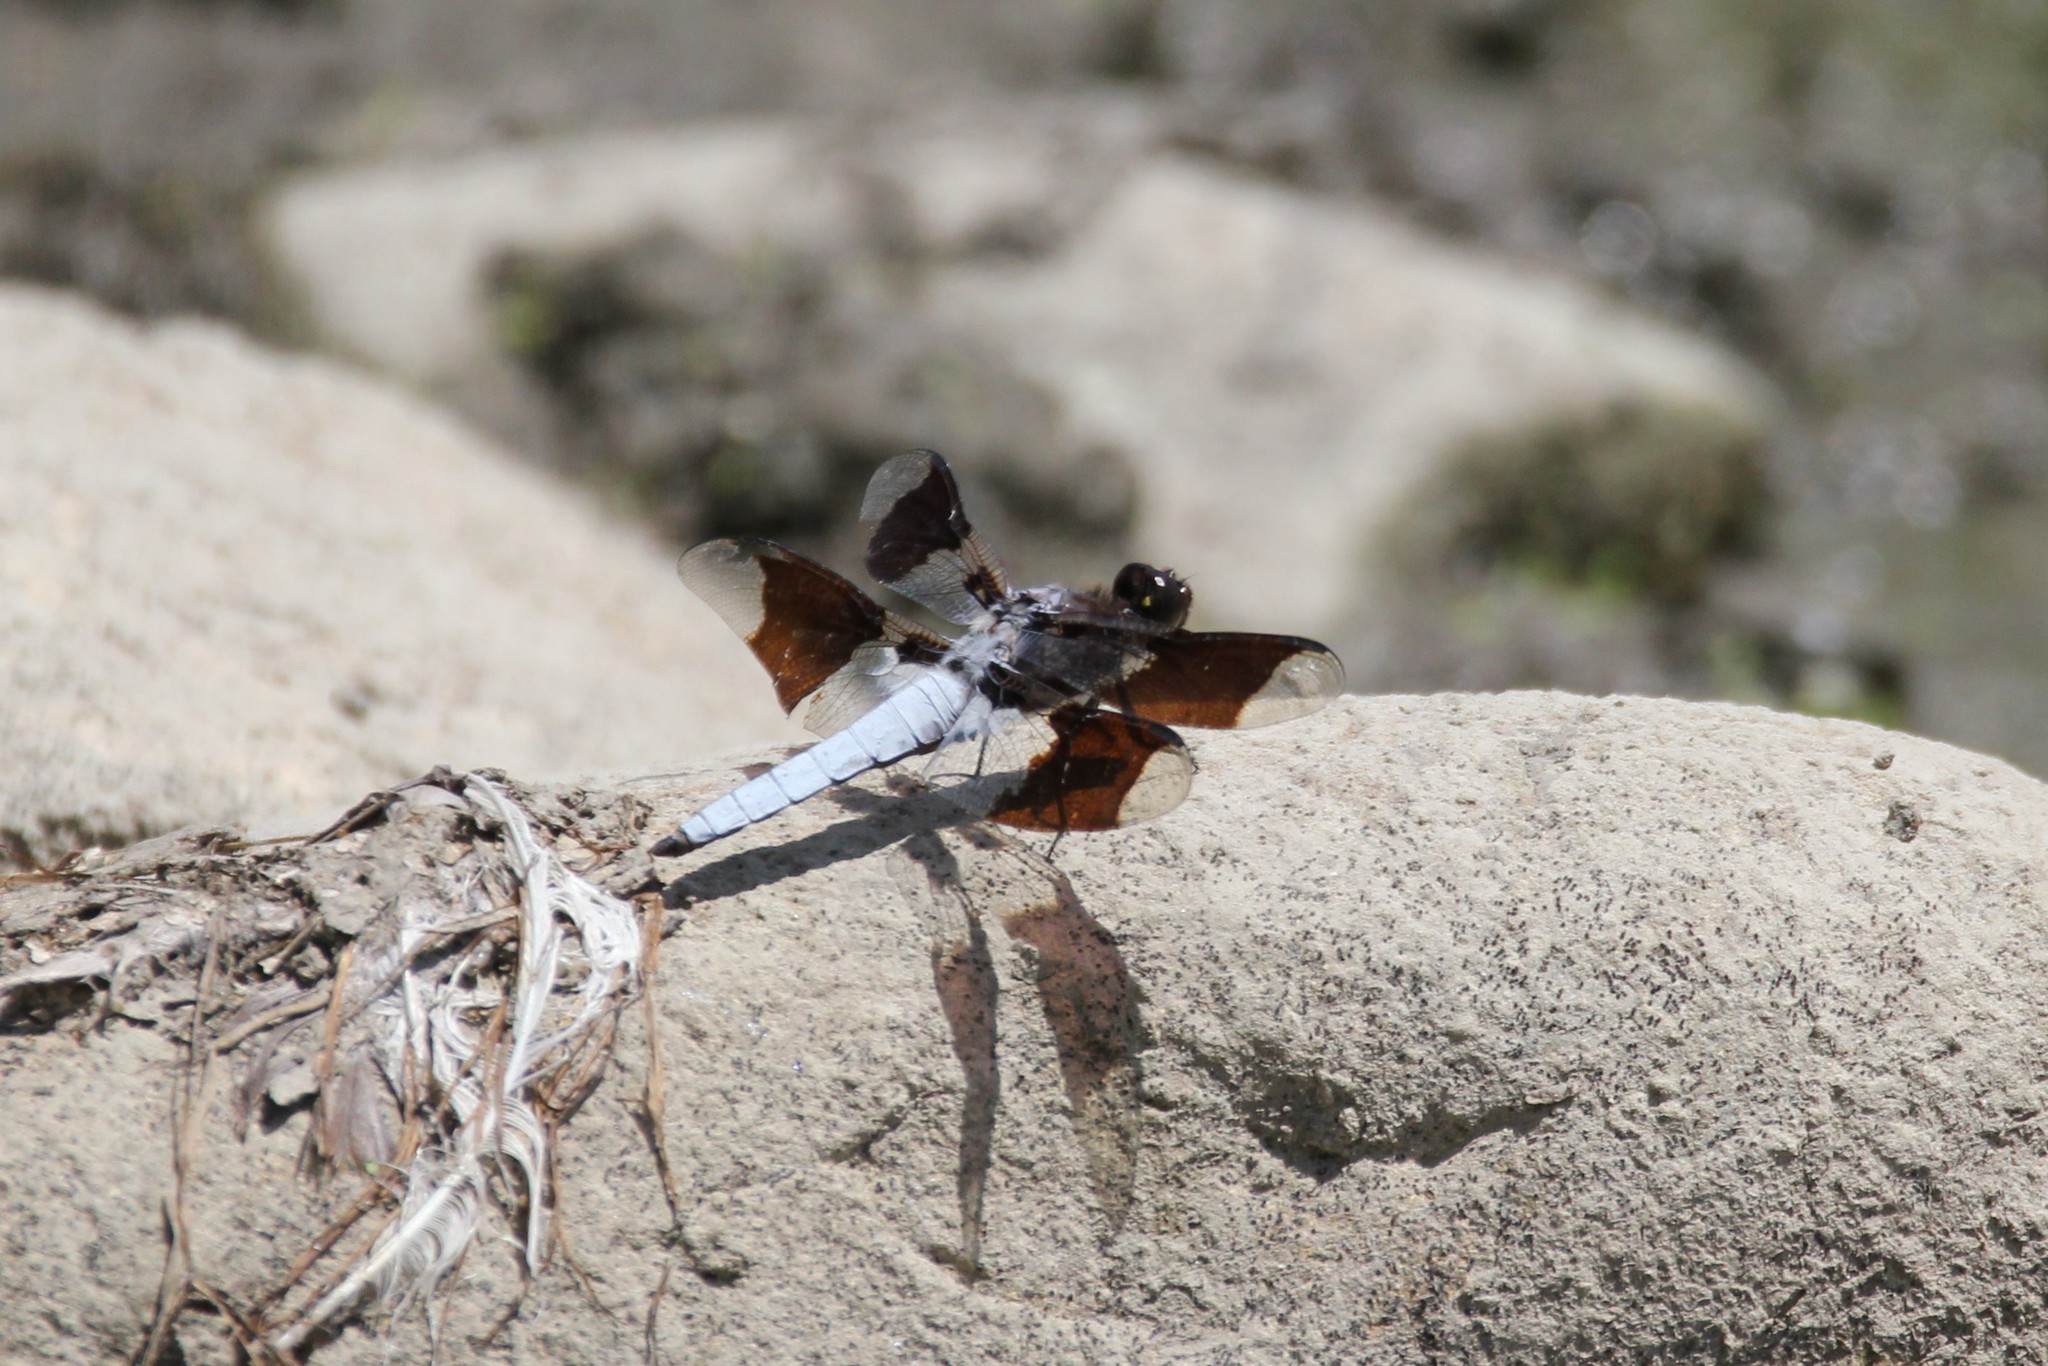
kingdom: Animalia
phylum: Arthropoda
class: Insecta
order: Odonata
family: Libellulidae
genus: Plathemis
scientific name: Plathemis lydia
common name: Common whitetail
